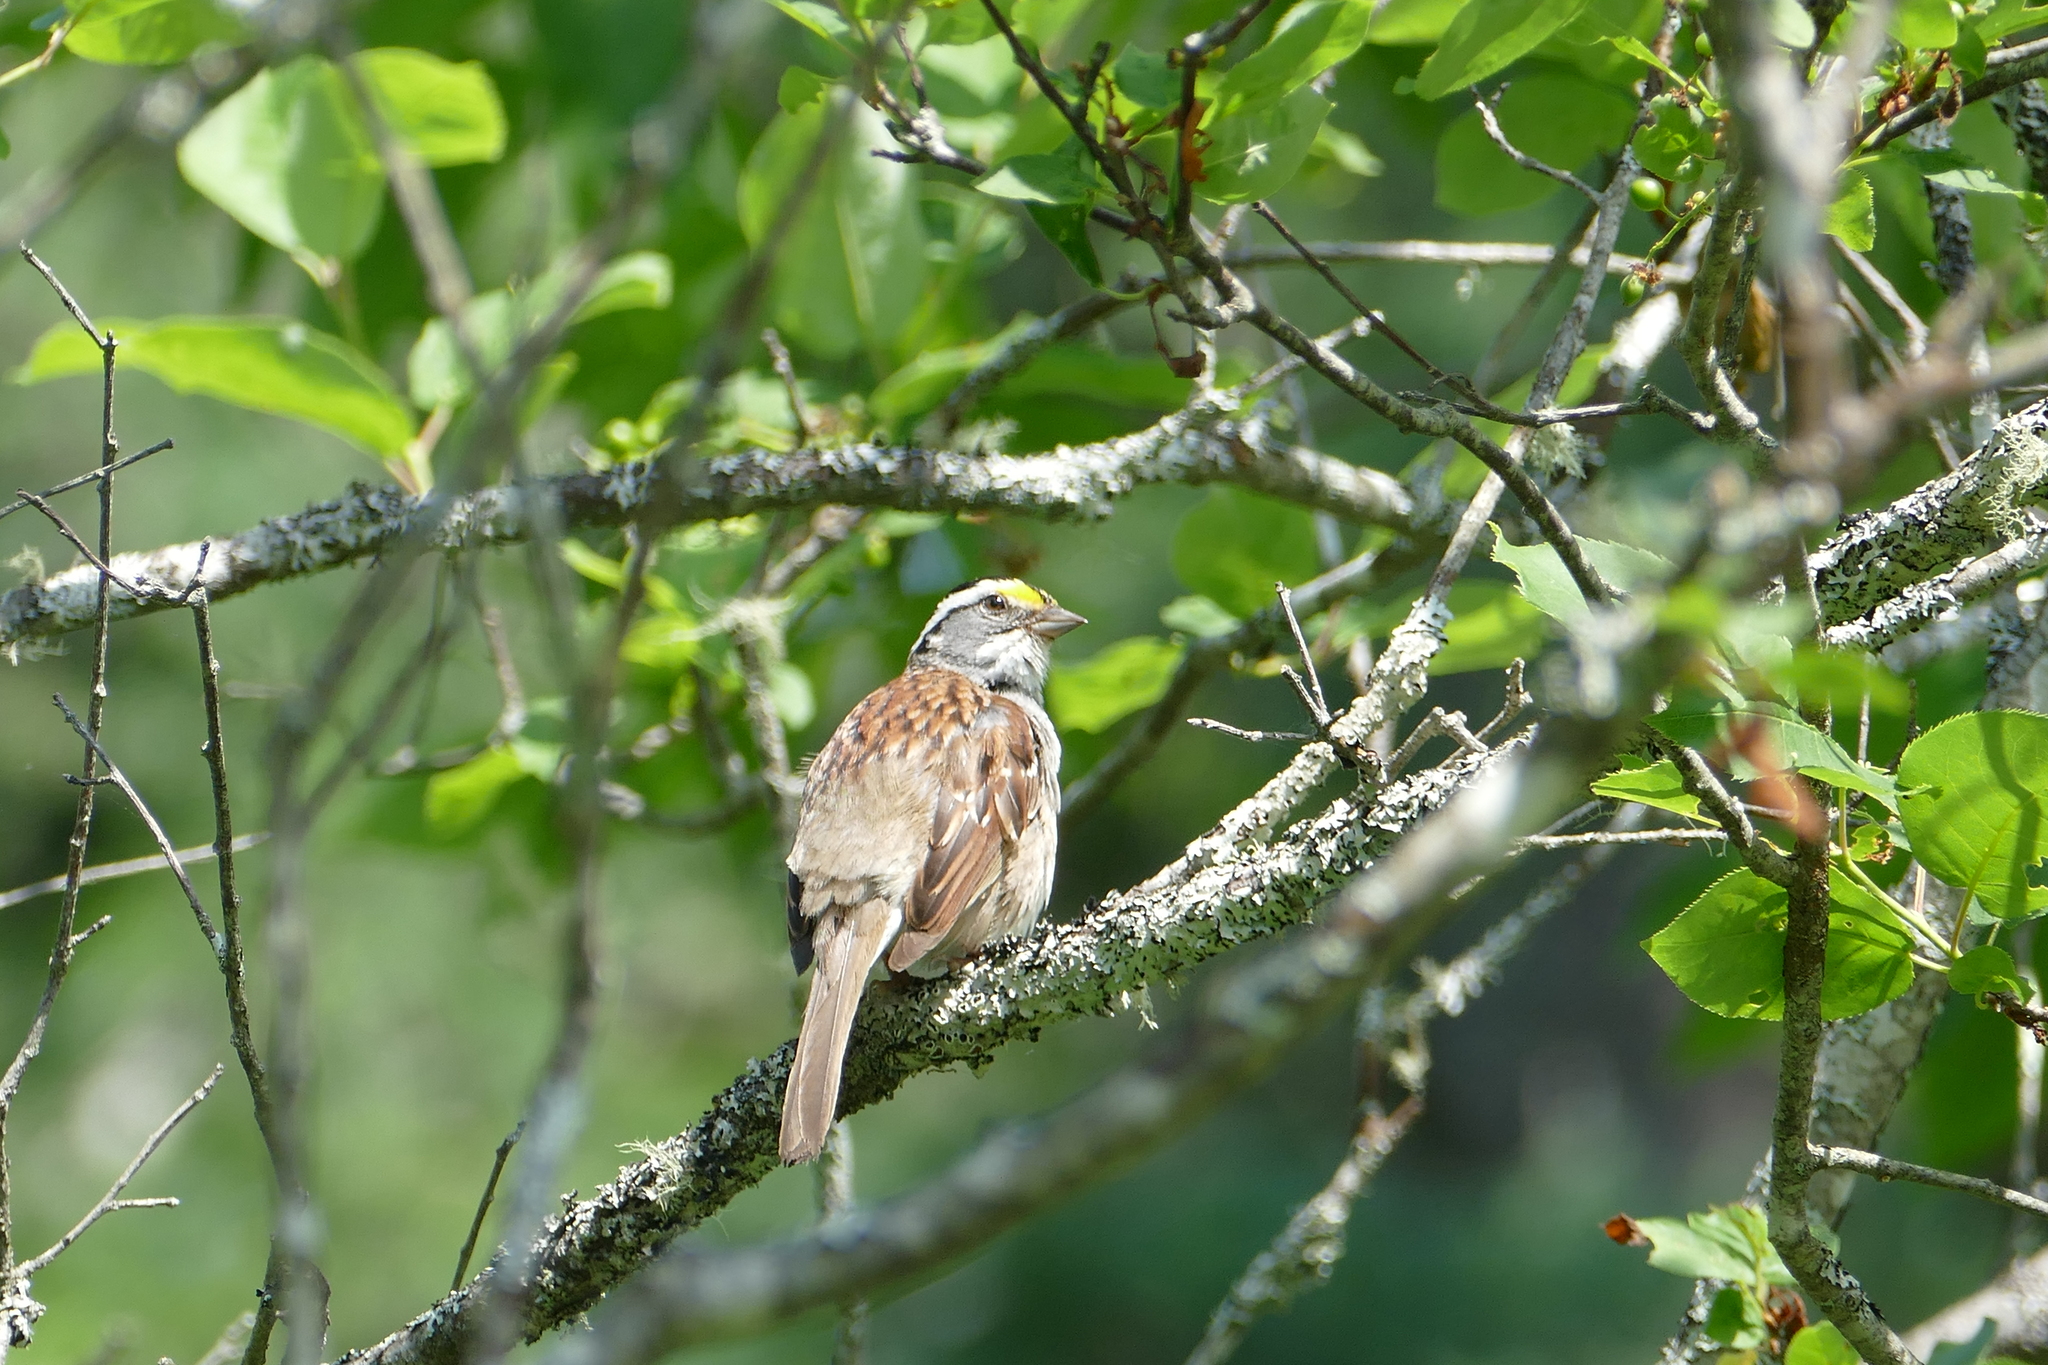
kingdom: Animalia
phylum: Chordata
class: Aves
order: Passeriformes
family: Passerellidae
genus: Zonotrichia
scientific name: Zonotrichia albicollis
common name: White-throated sparrow
